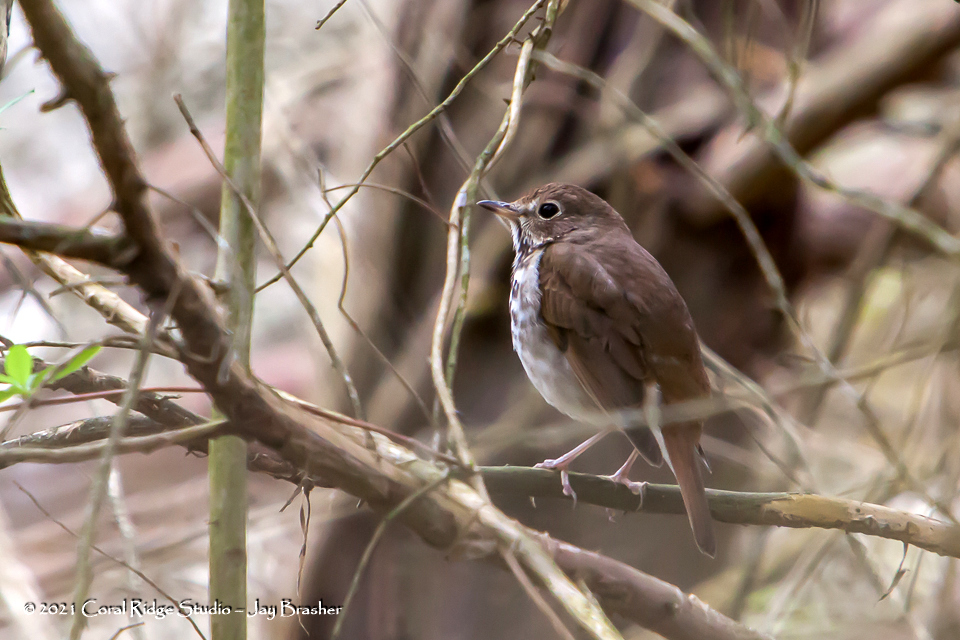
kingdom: Animalia
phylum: Chordata
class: Aves
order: Passeriformes
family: Turdidae
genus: Catharus
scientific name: Catharus guttatus
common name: Hermit thrush
